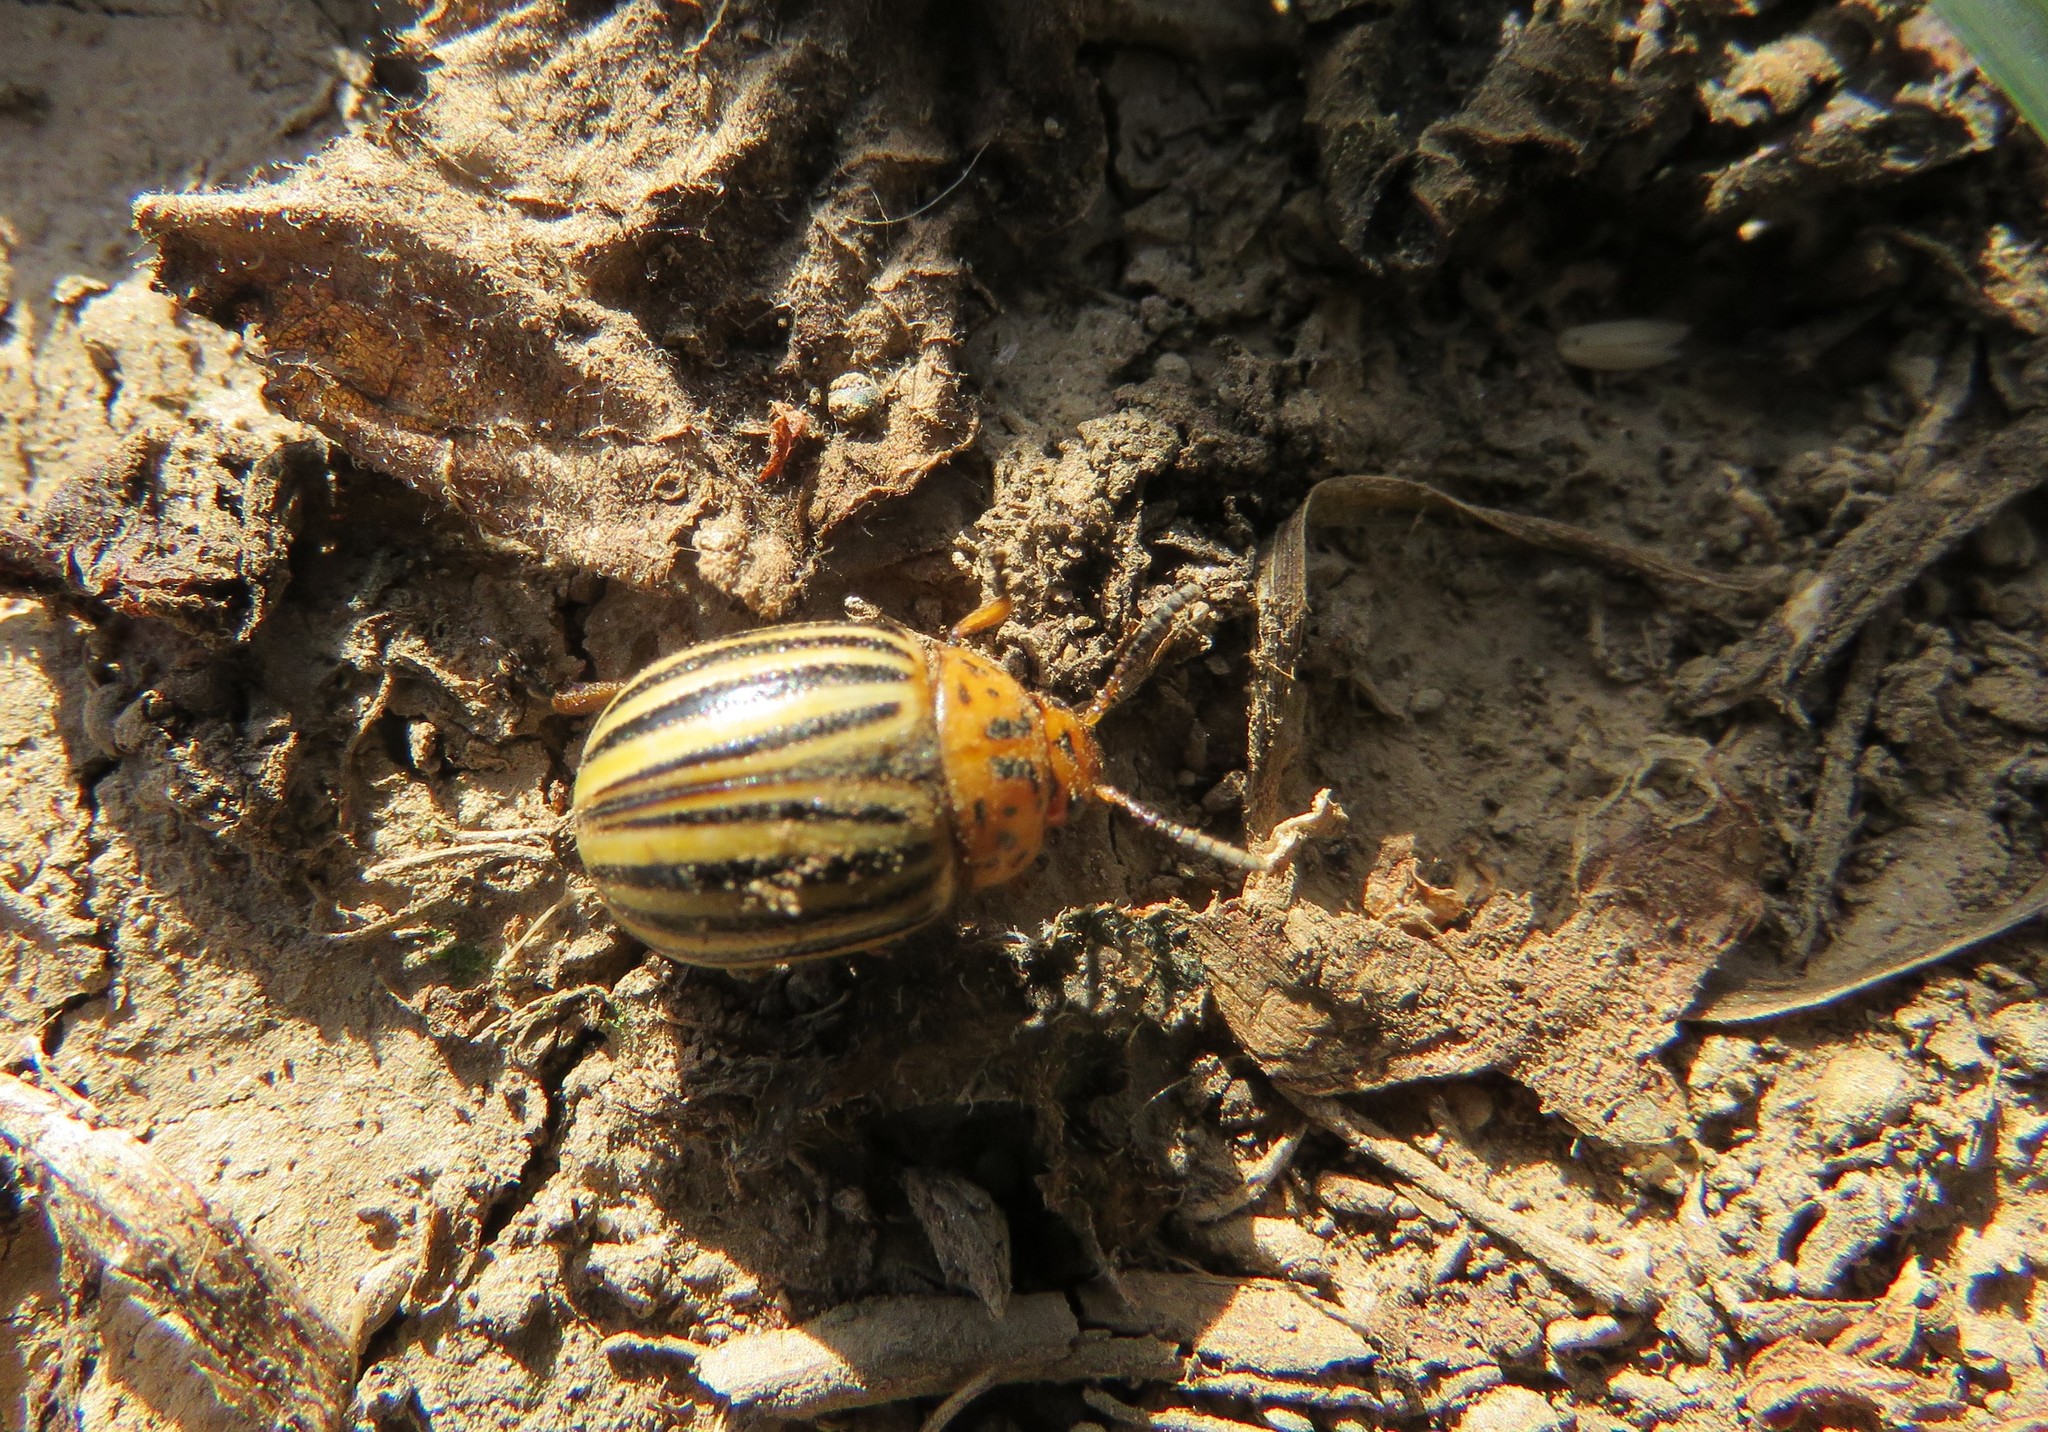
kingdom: Animalia
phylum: Arthropoda
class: Insecta
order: Coleoptera
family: Chrysomelidae
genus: Leptinotarsa
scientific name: Leptinotarsa decemlineata
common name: Colorado potato beetle
